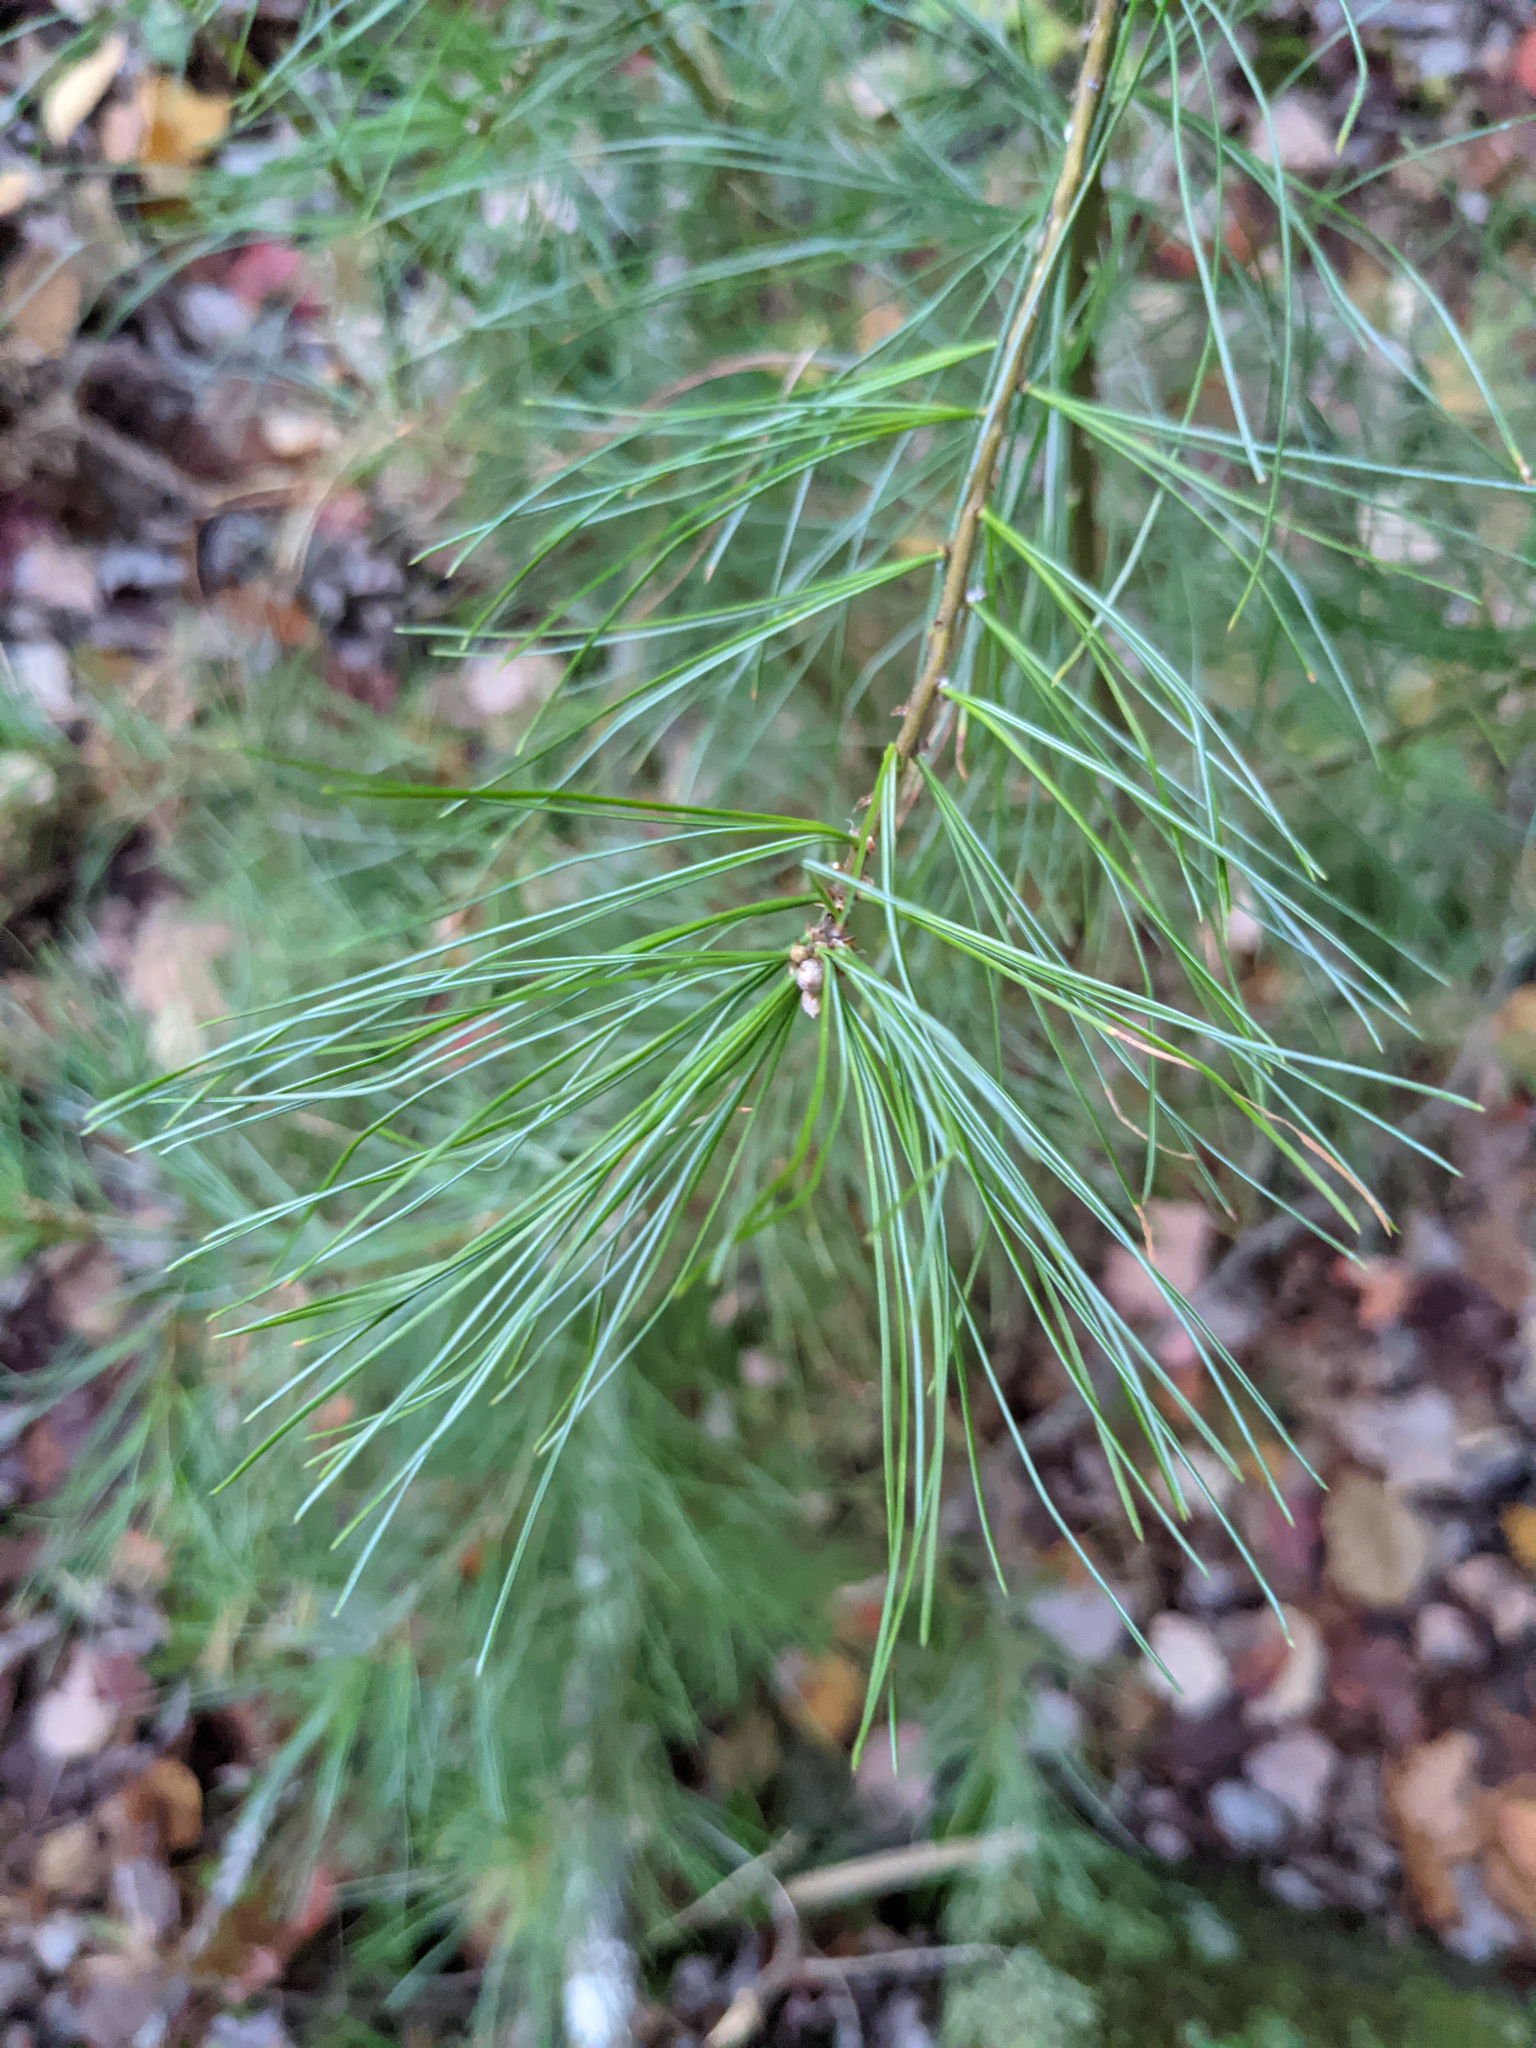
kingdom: Plantae
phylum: Tracheophyta
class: Pinopsida
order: Pinales
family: Pinaceae
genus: Pinus
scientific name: Pinus strobus
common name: Weymouth pine
